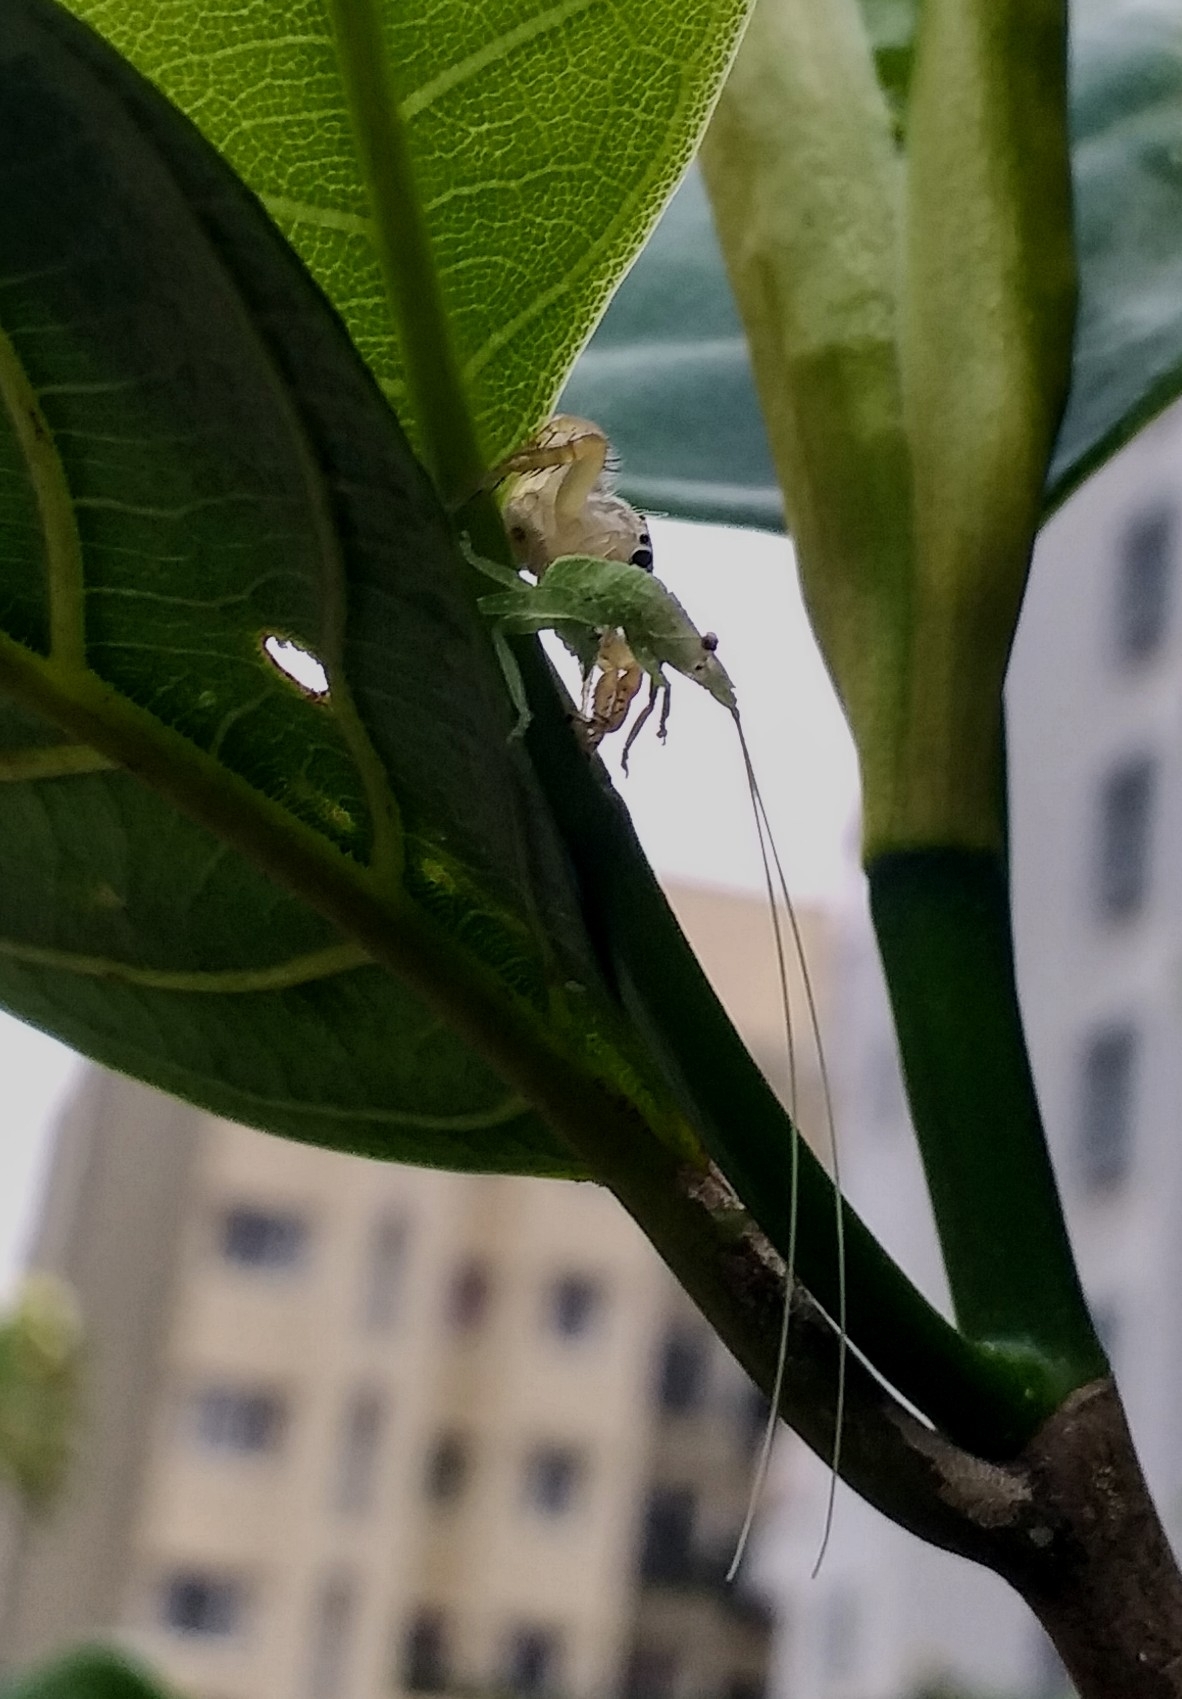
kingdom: Animalia
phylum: Arthropoda
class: Arachnida
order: Araneae
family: Salticidae
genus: Telamonia
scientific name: Telamonia dimidiata
